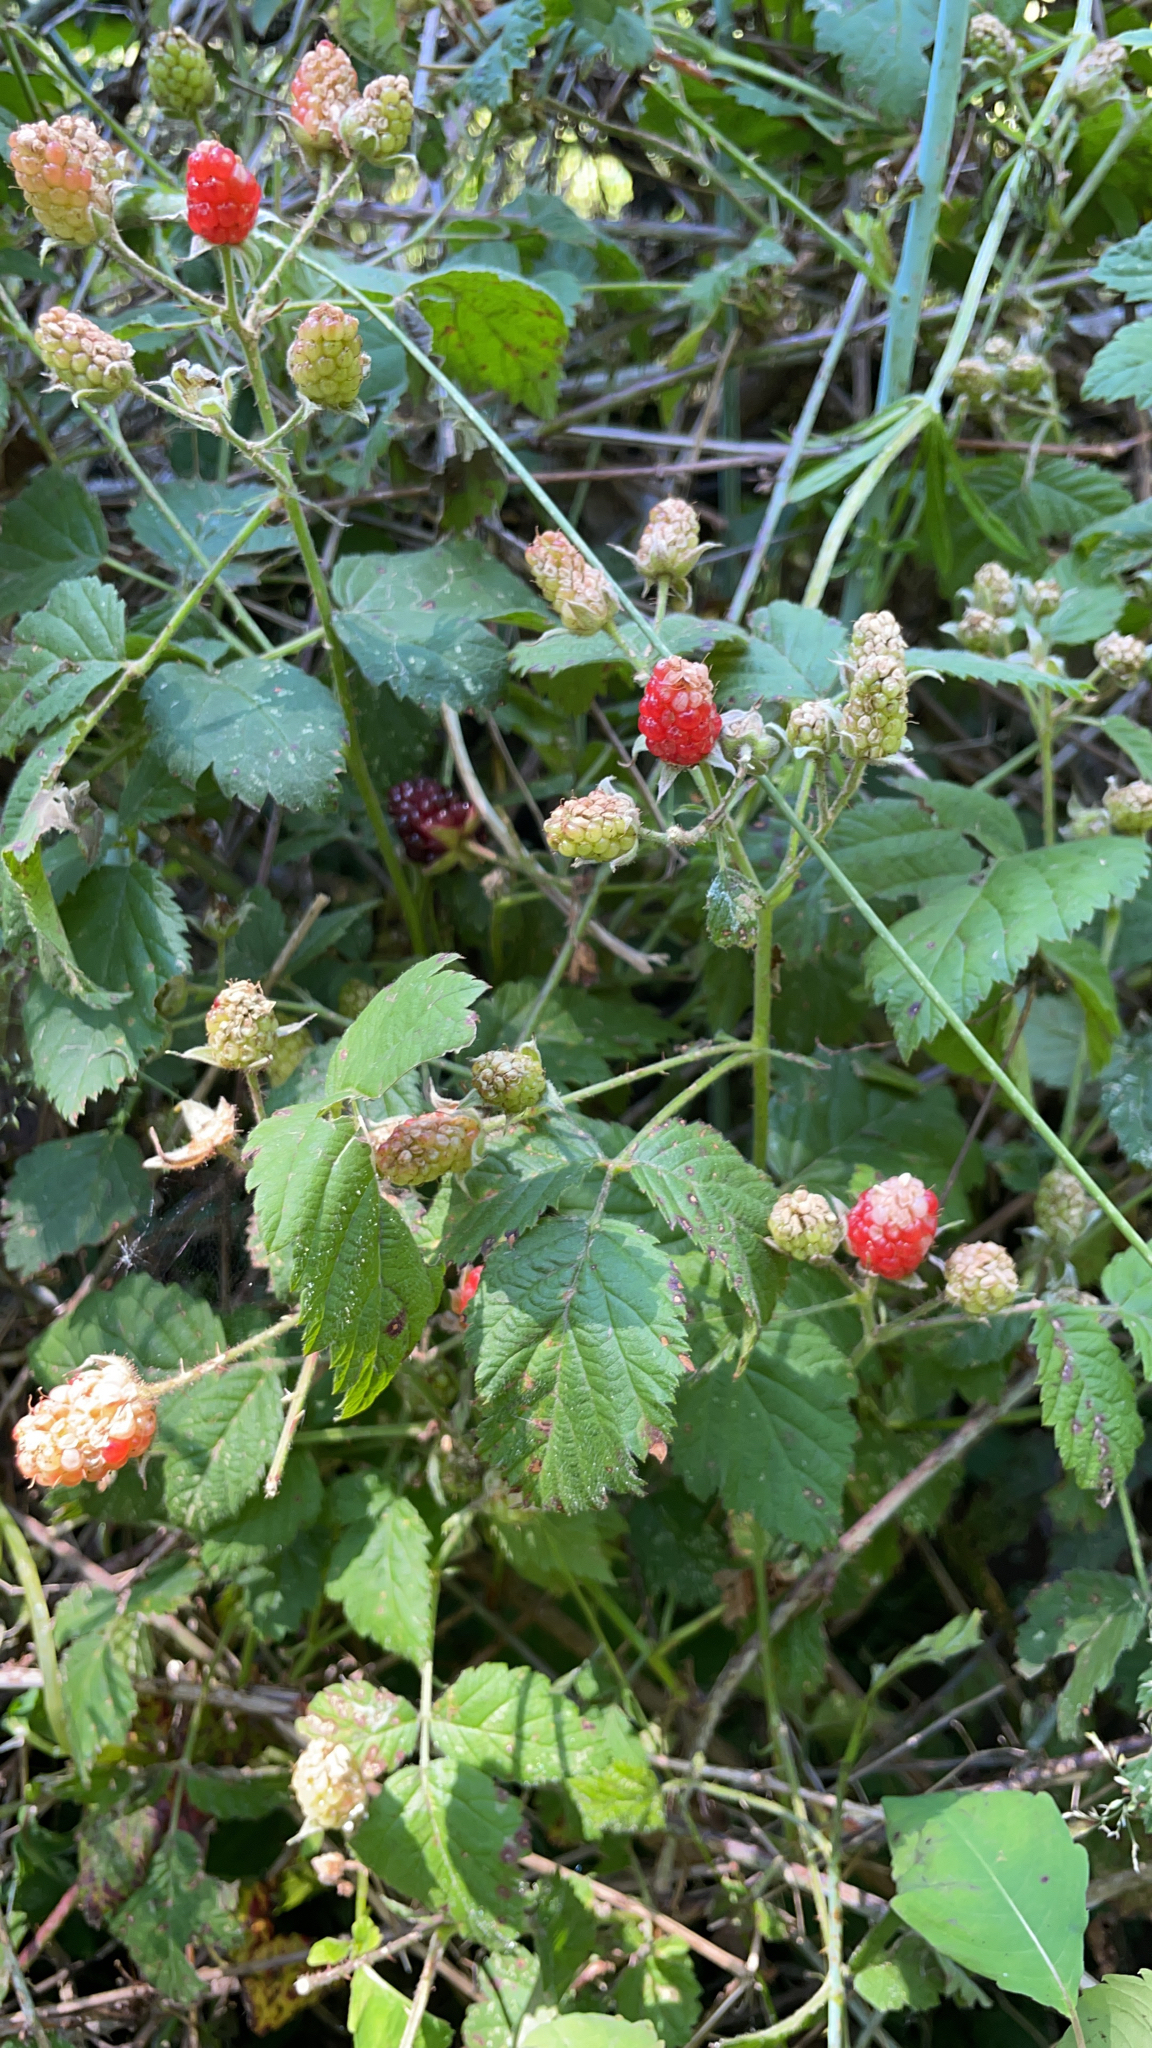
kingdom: Plantae
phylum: Tracheophyta
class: Magnoliopsida
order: Rosales
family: Rosaceae
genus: Rubus
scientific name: Rubus ursinus
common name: Pacific blackberry
